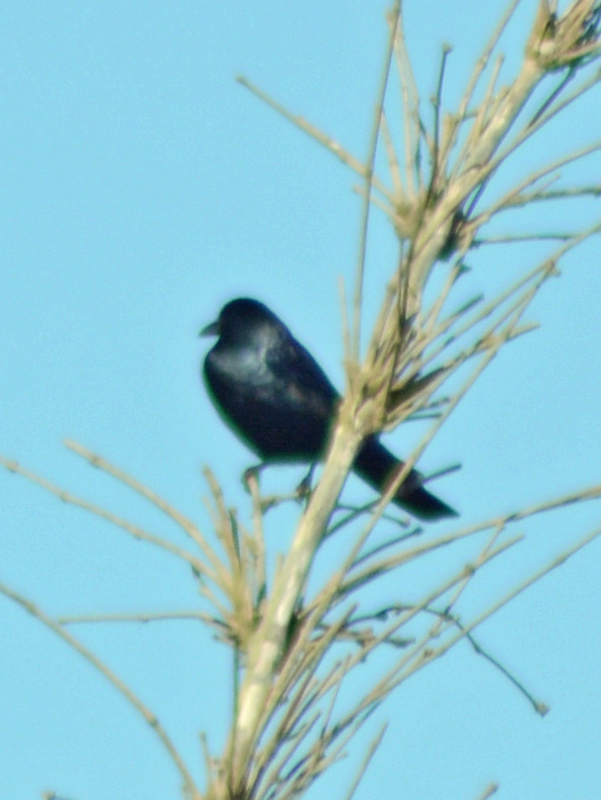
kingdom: Animalia
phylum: Chordata
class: Aves
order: Passeriformes
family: Corvidae
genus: Corvus
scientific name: Corvus sinaloae
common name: Sinaloa crow
